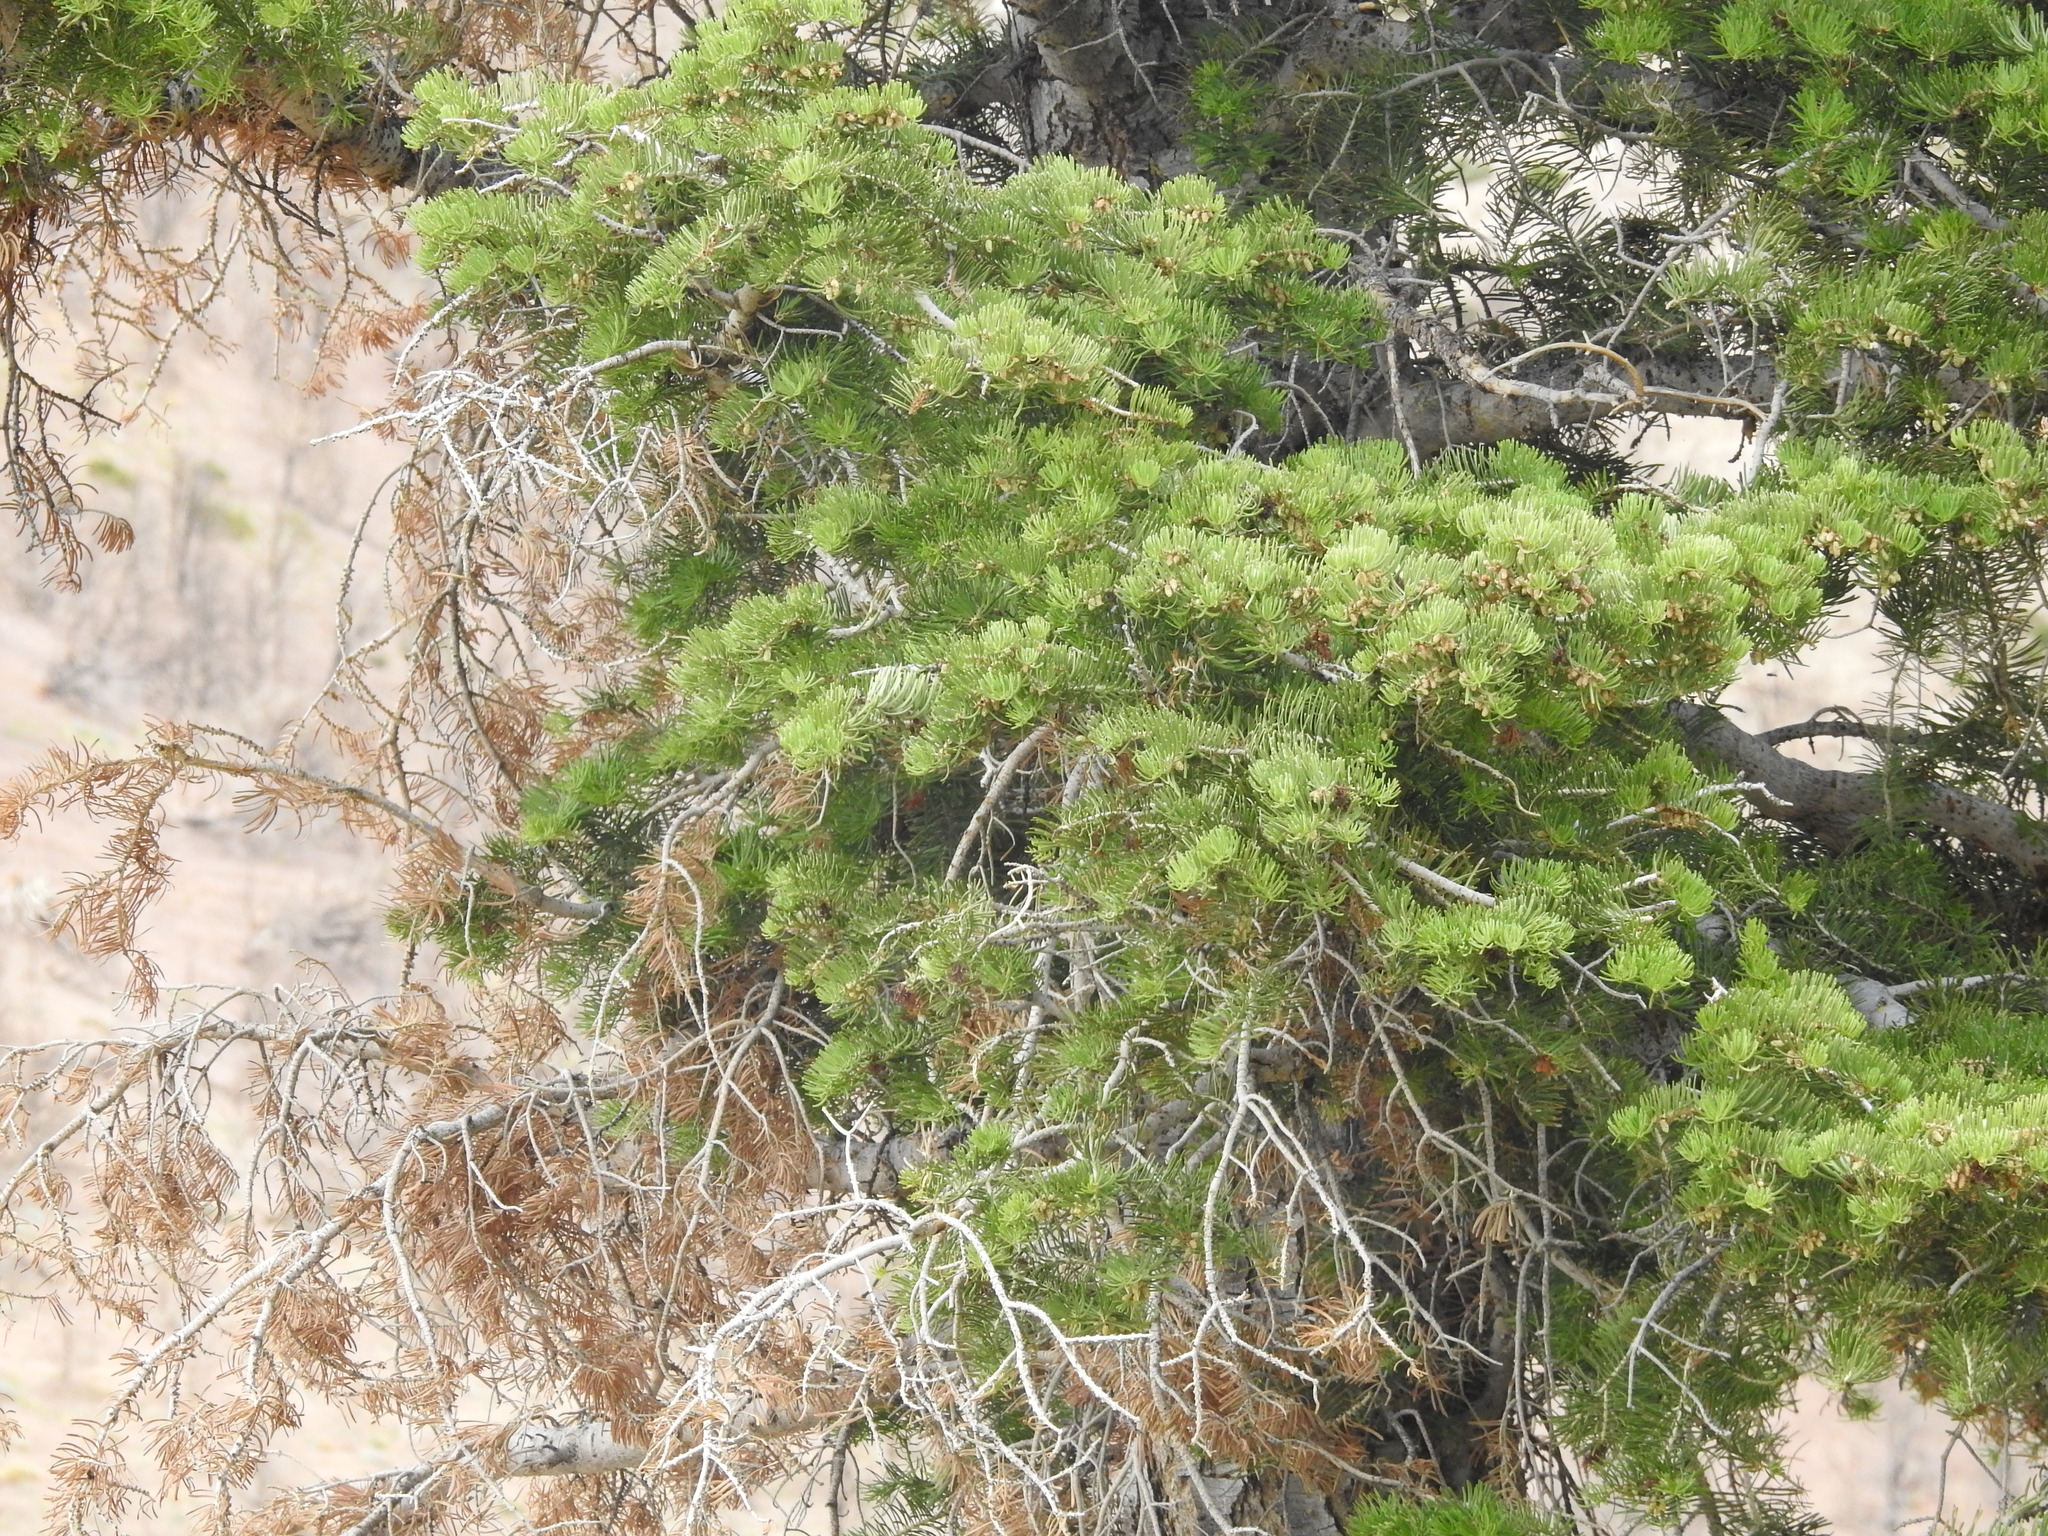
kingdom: Plantae
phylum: Tracheophyta
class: Pinopsida
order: Pinales
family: Pinaceae
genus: Abies
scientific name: Abies concolor
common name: Colorado fir
